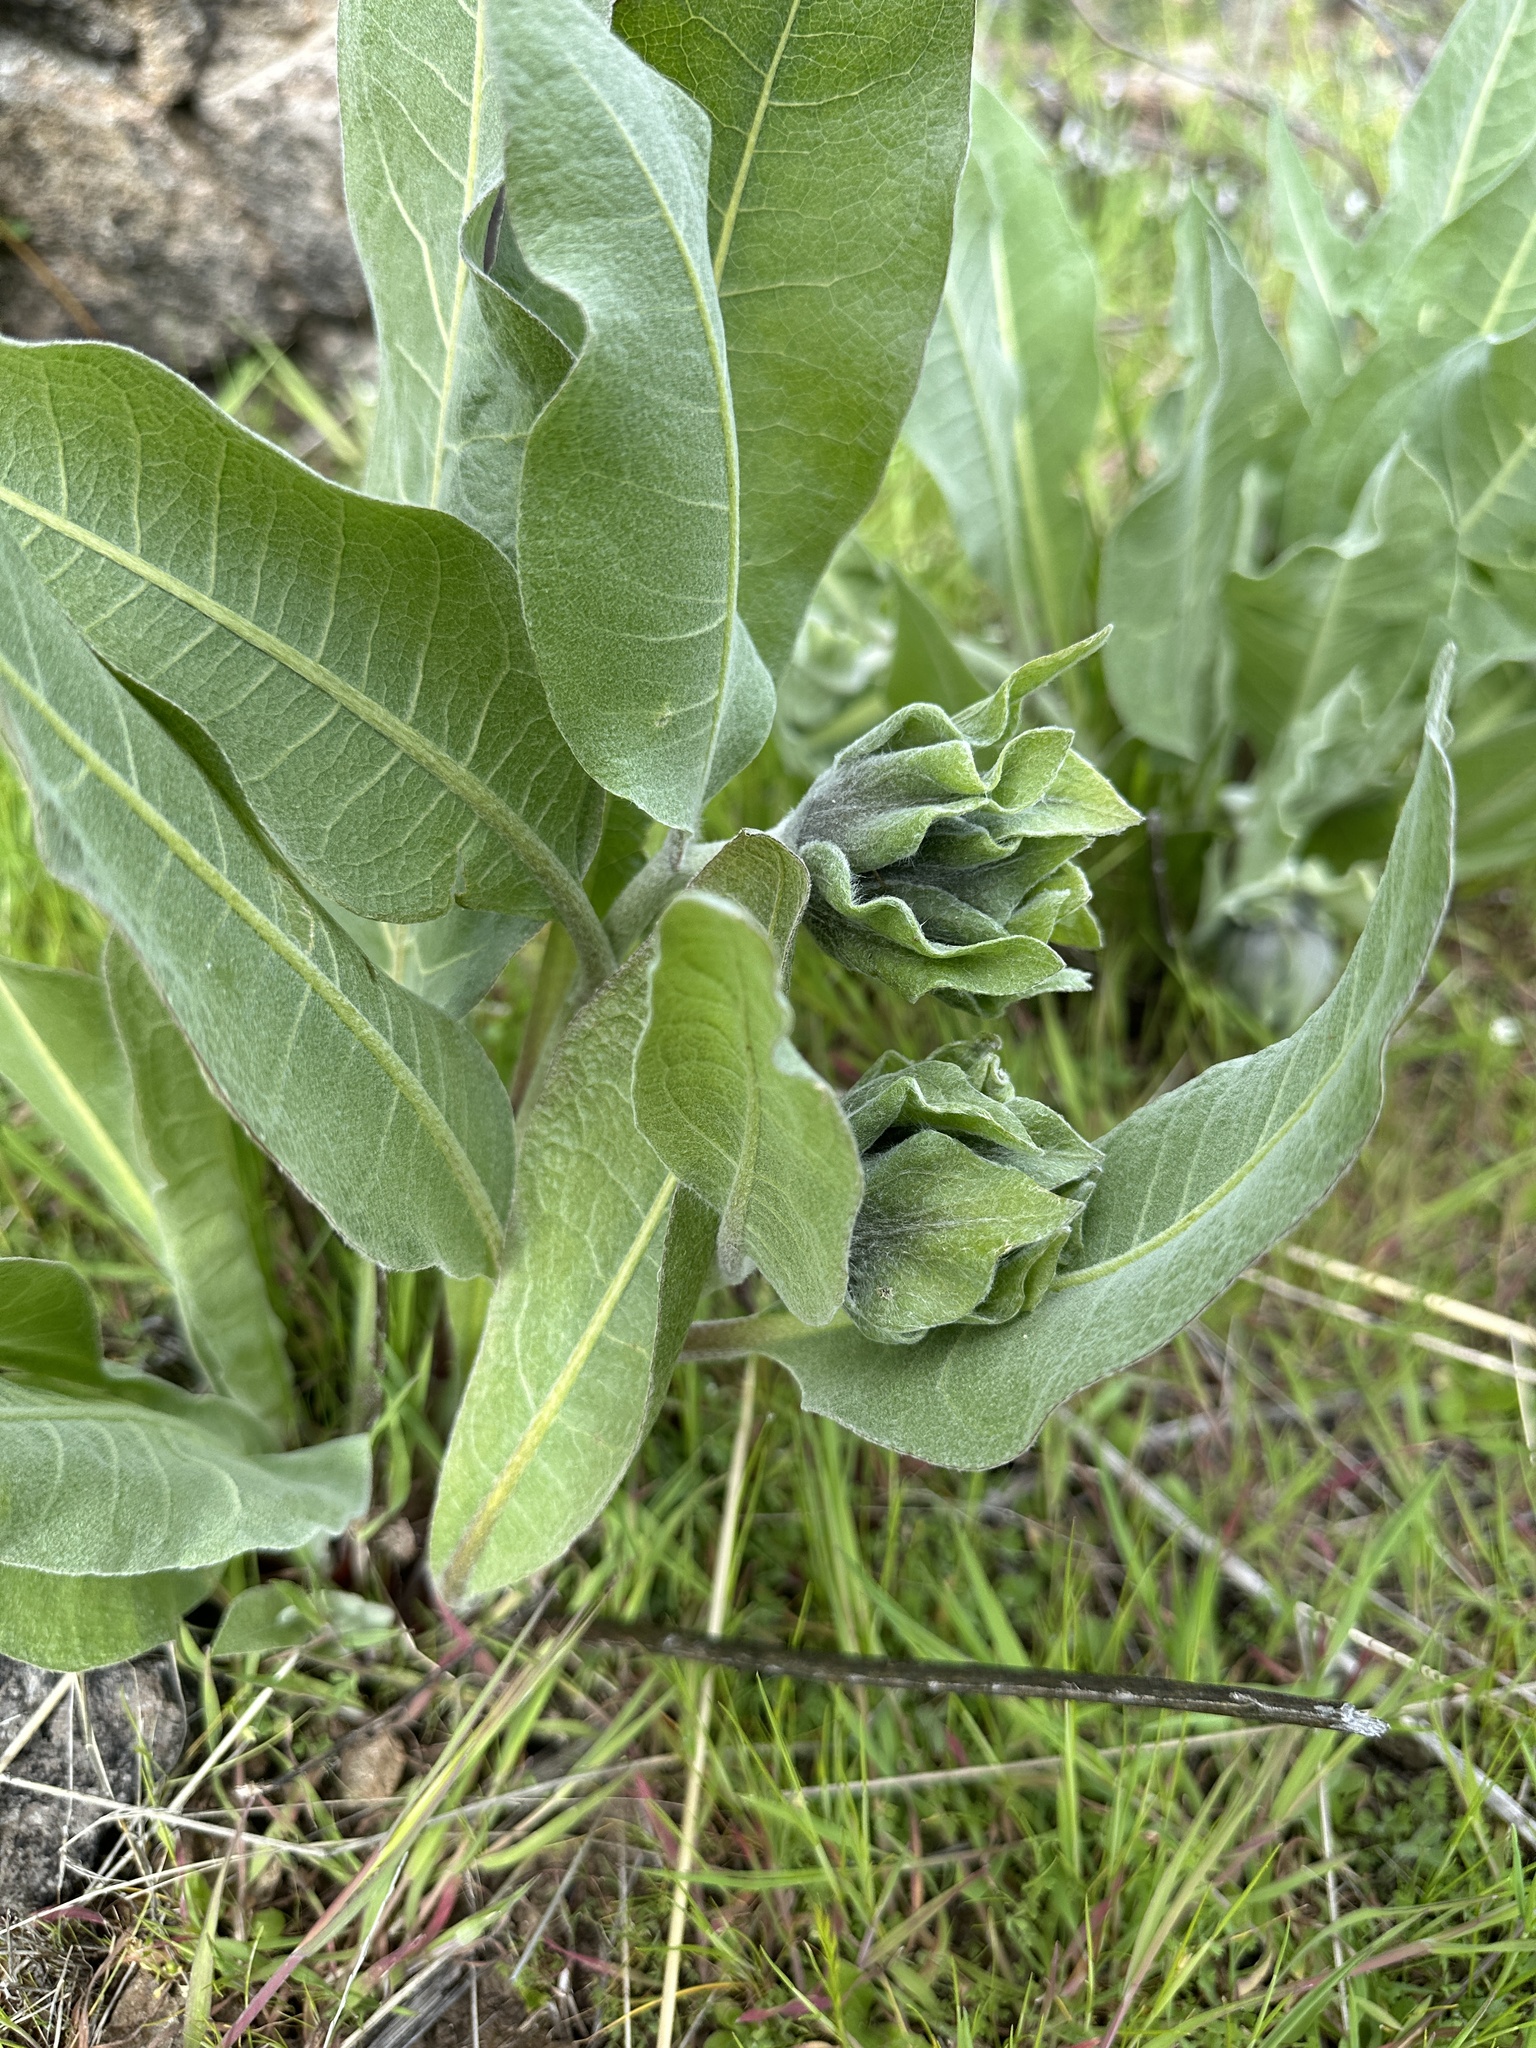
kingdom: Plantae
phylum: Tracheophyta
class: Magnoliopsida
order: Asterales
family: Asteraceae
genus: Wyethia
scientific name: Wyethia helenioides
